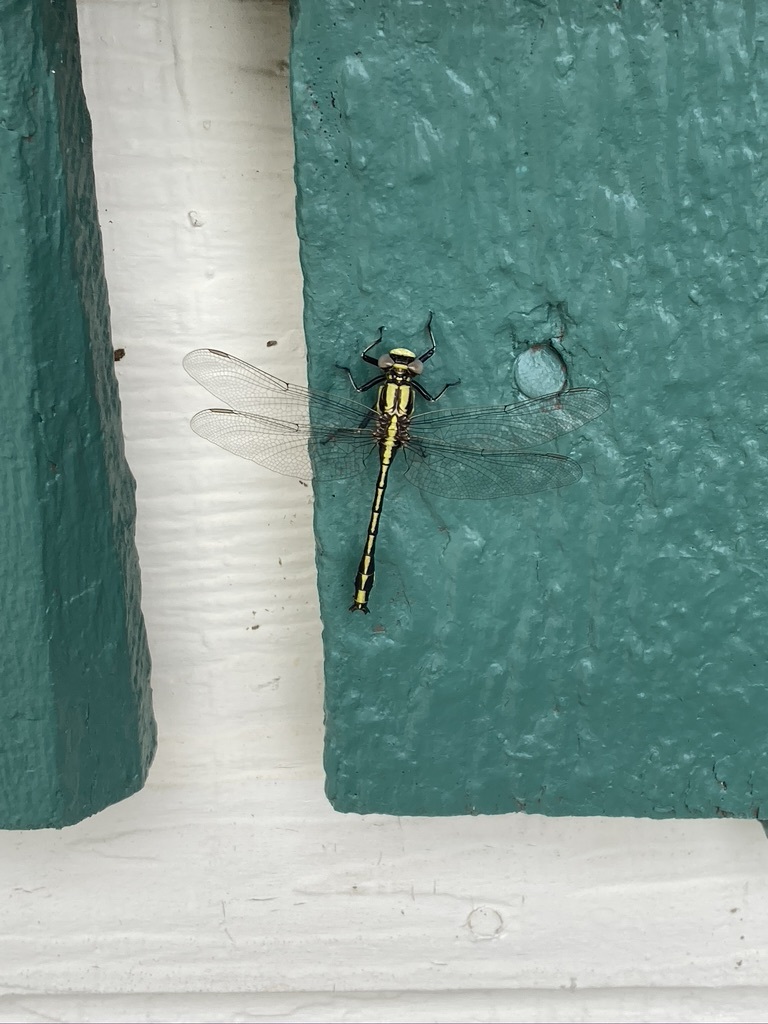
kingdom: Animalia
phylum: Arthropoda
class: Insecta
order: Odonata
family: Gomphidae
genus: Phanogomphus
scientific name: Phanogomphus graslinellus
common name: Pronghorn clubtail
